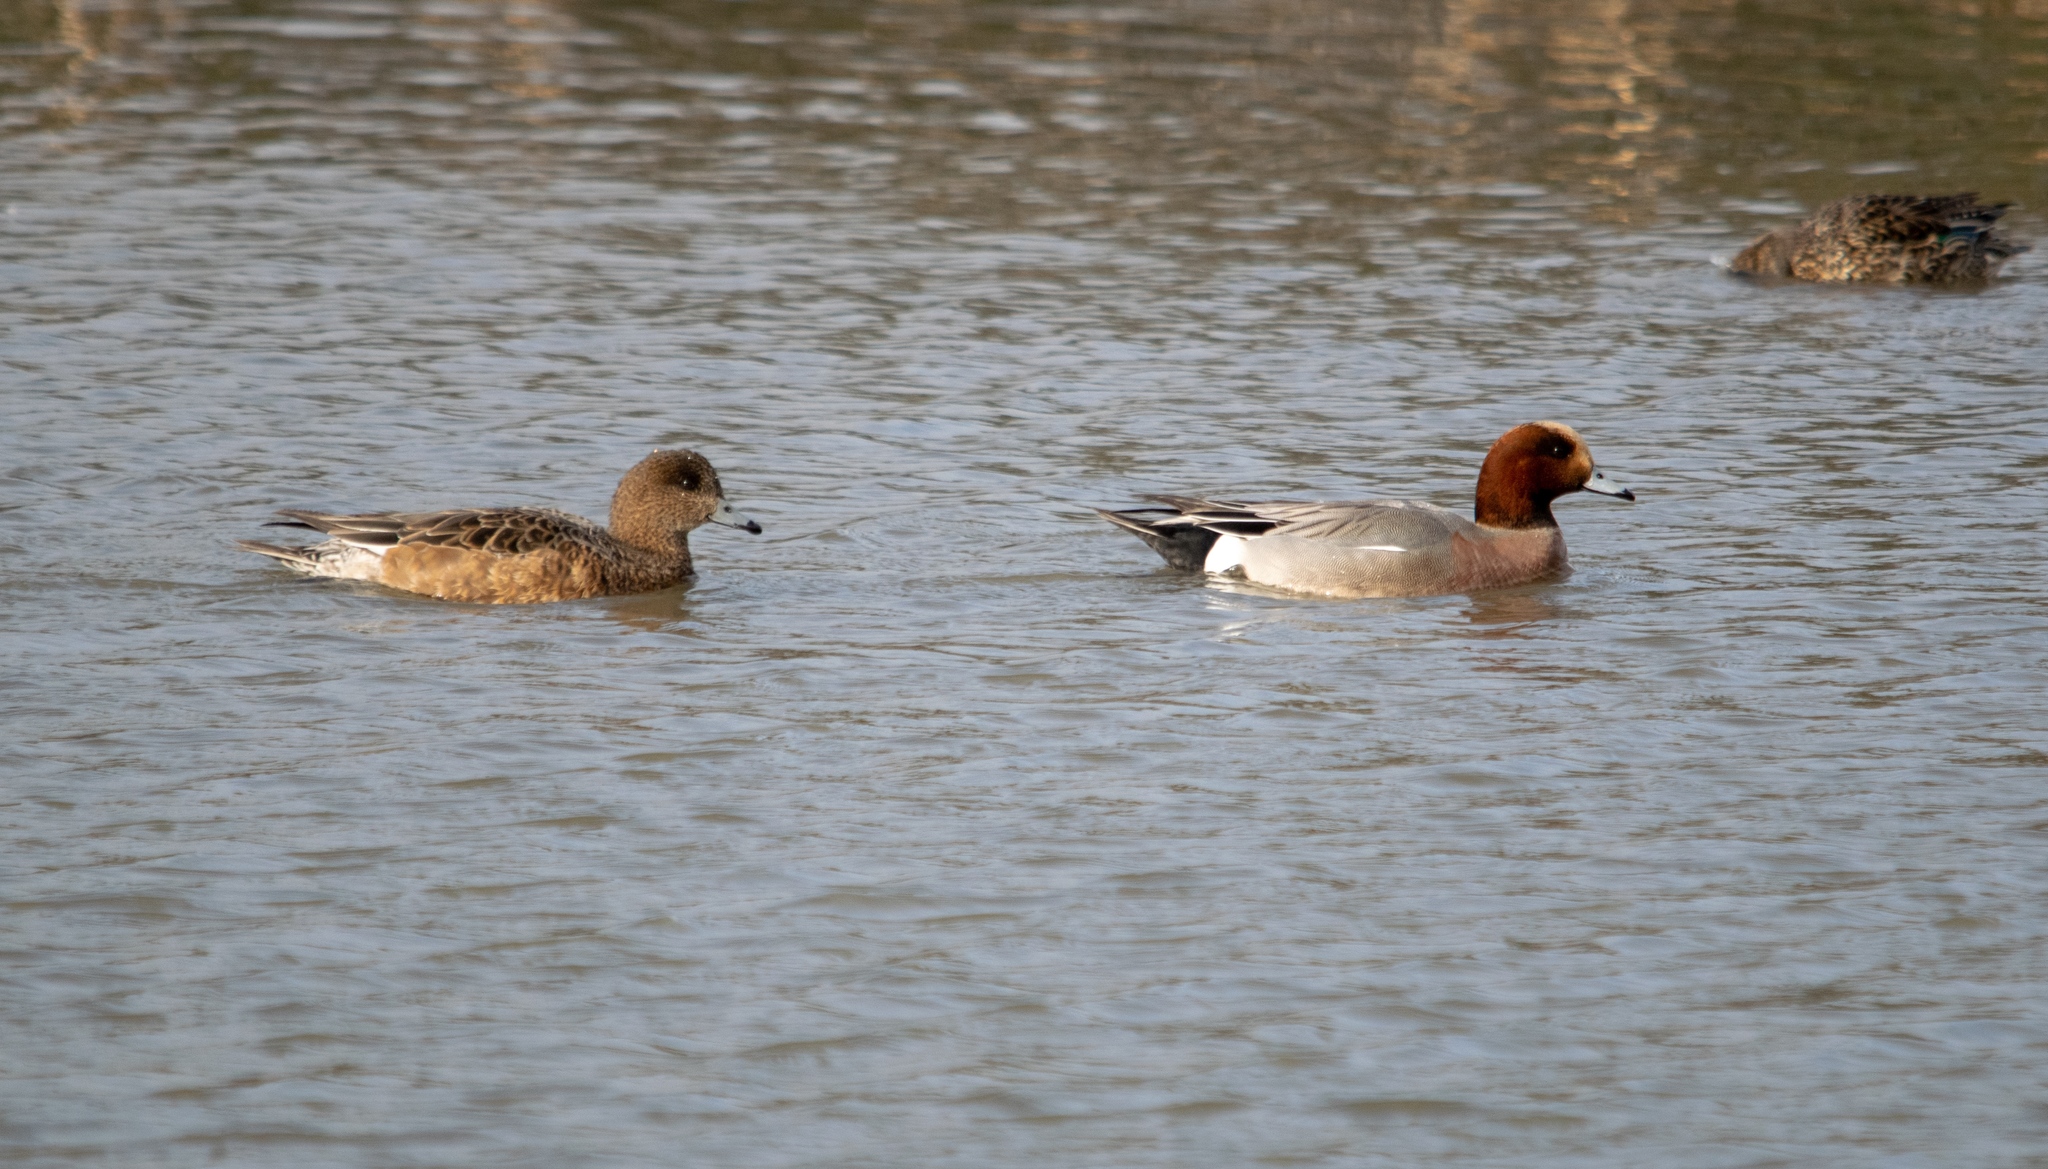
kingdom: Animalia
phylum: Chordata
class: Aves
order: Anseriformes
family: Anatidae
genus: Mareca
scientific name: Mareca penelope
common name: Eurasian wigeon
